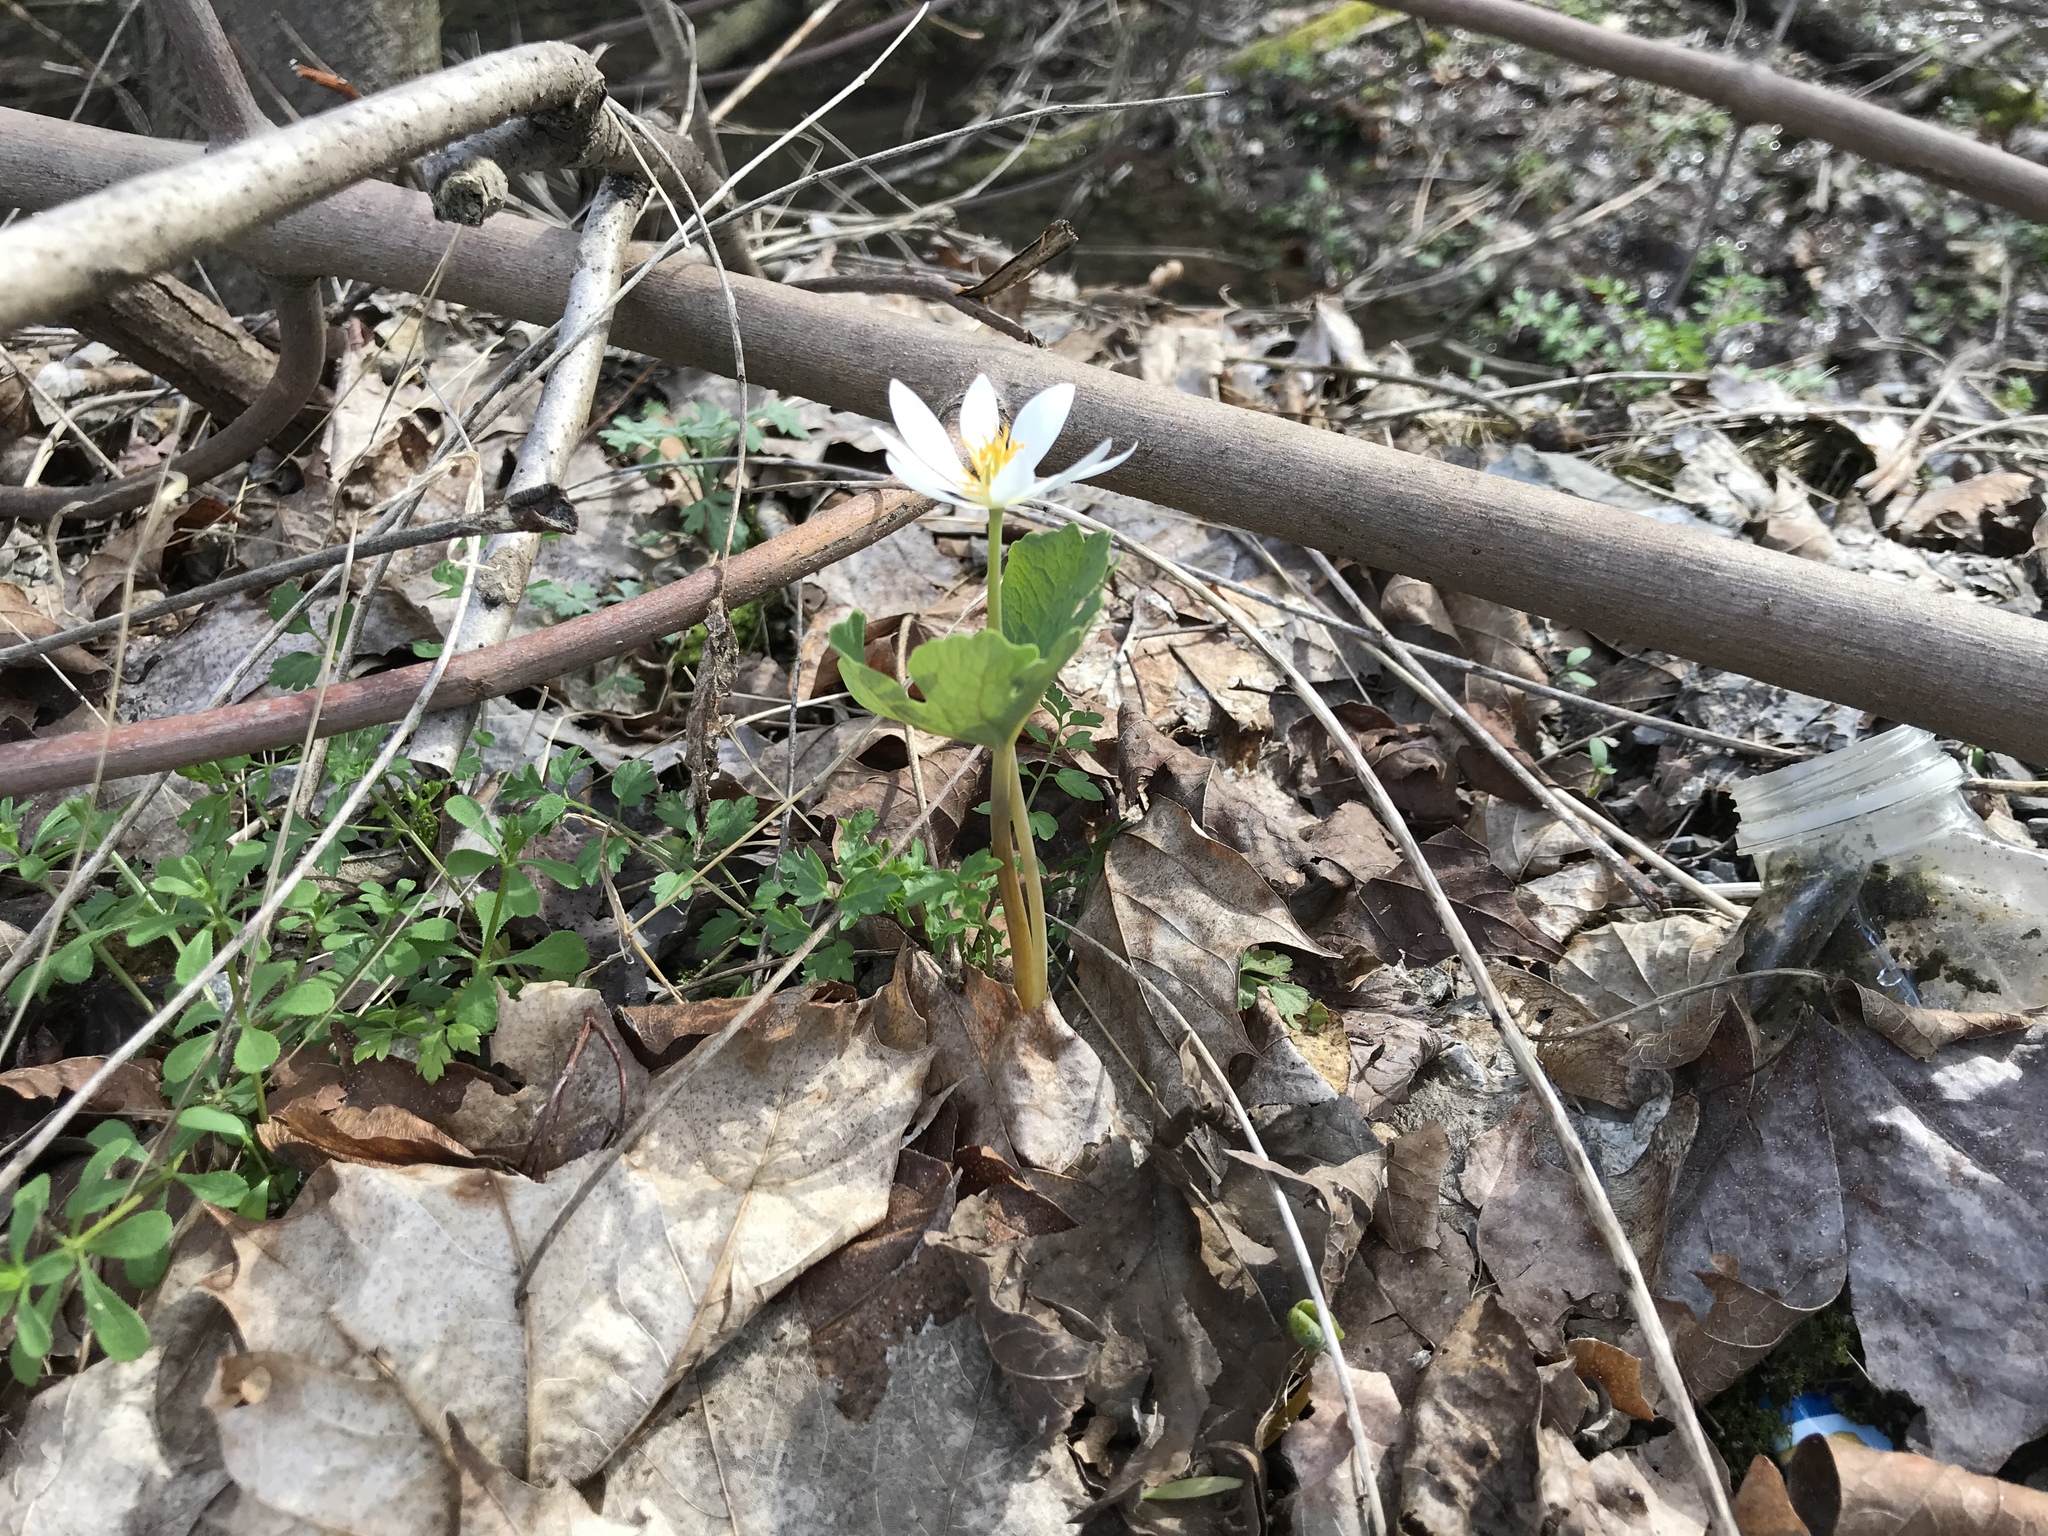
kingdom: Plantae
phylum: Tracheophyta
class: Magnoliopsida
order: Ranunculales
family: Papaveraceae
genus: Sanguinaria
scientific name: Sanguinaria canadensis
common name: Bloodroot
